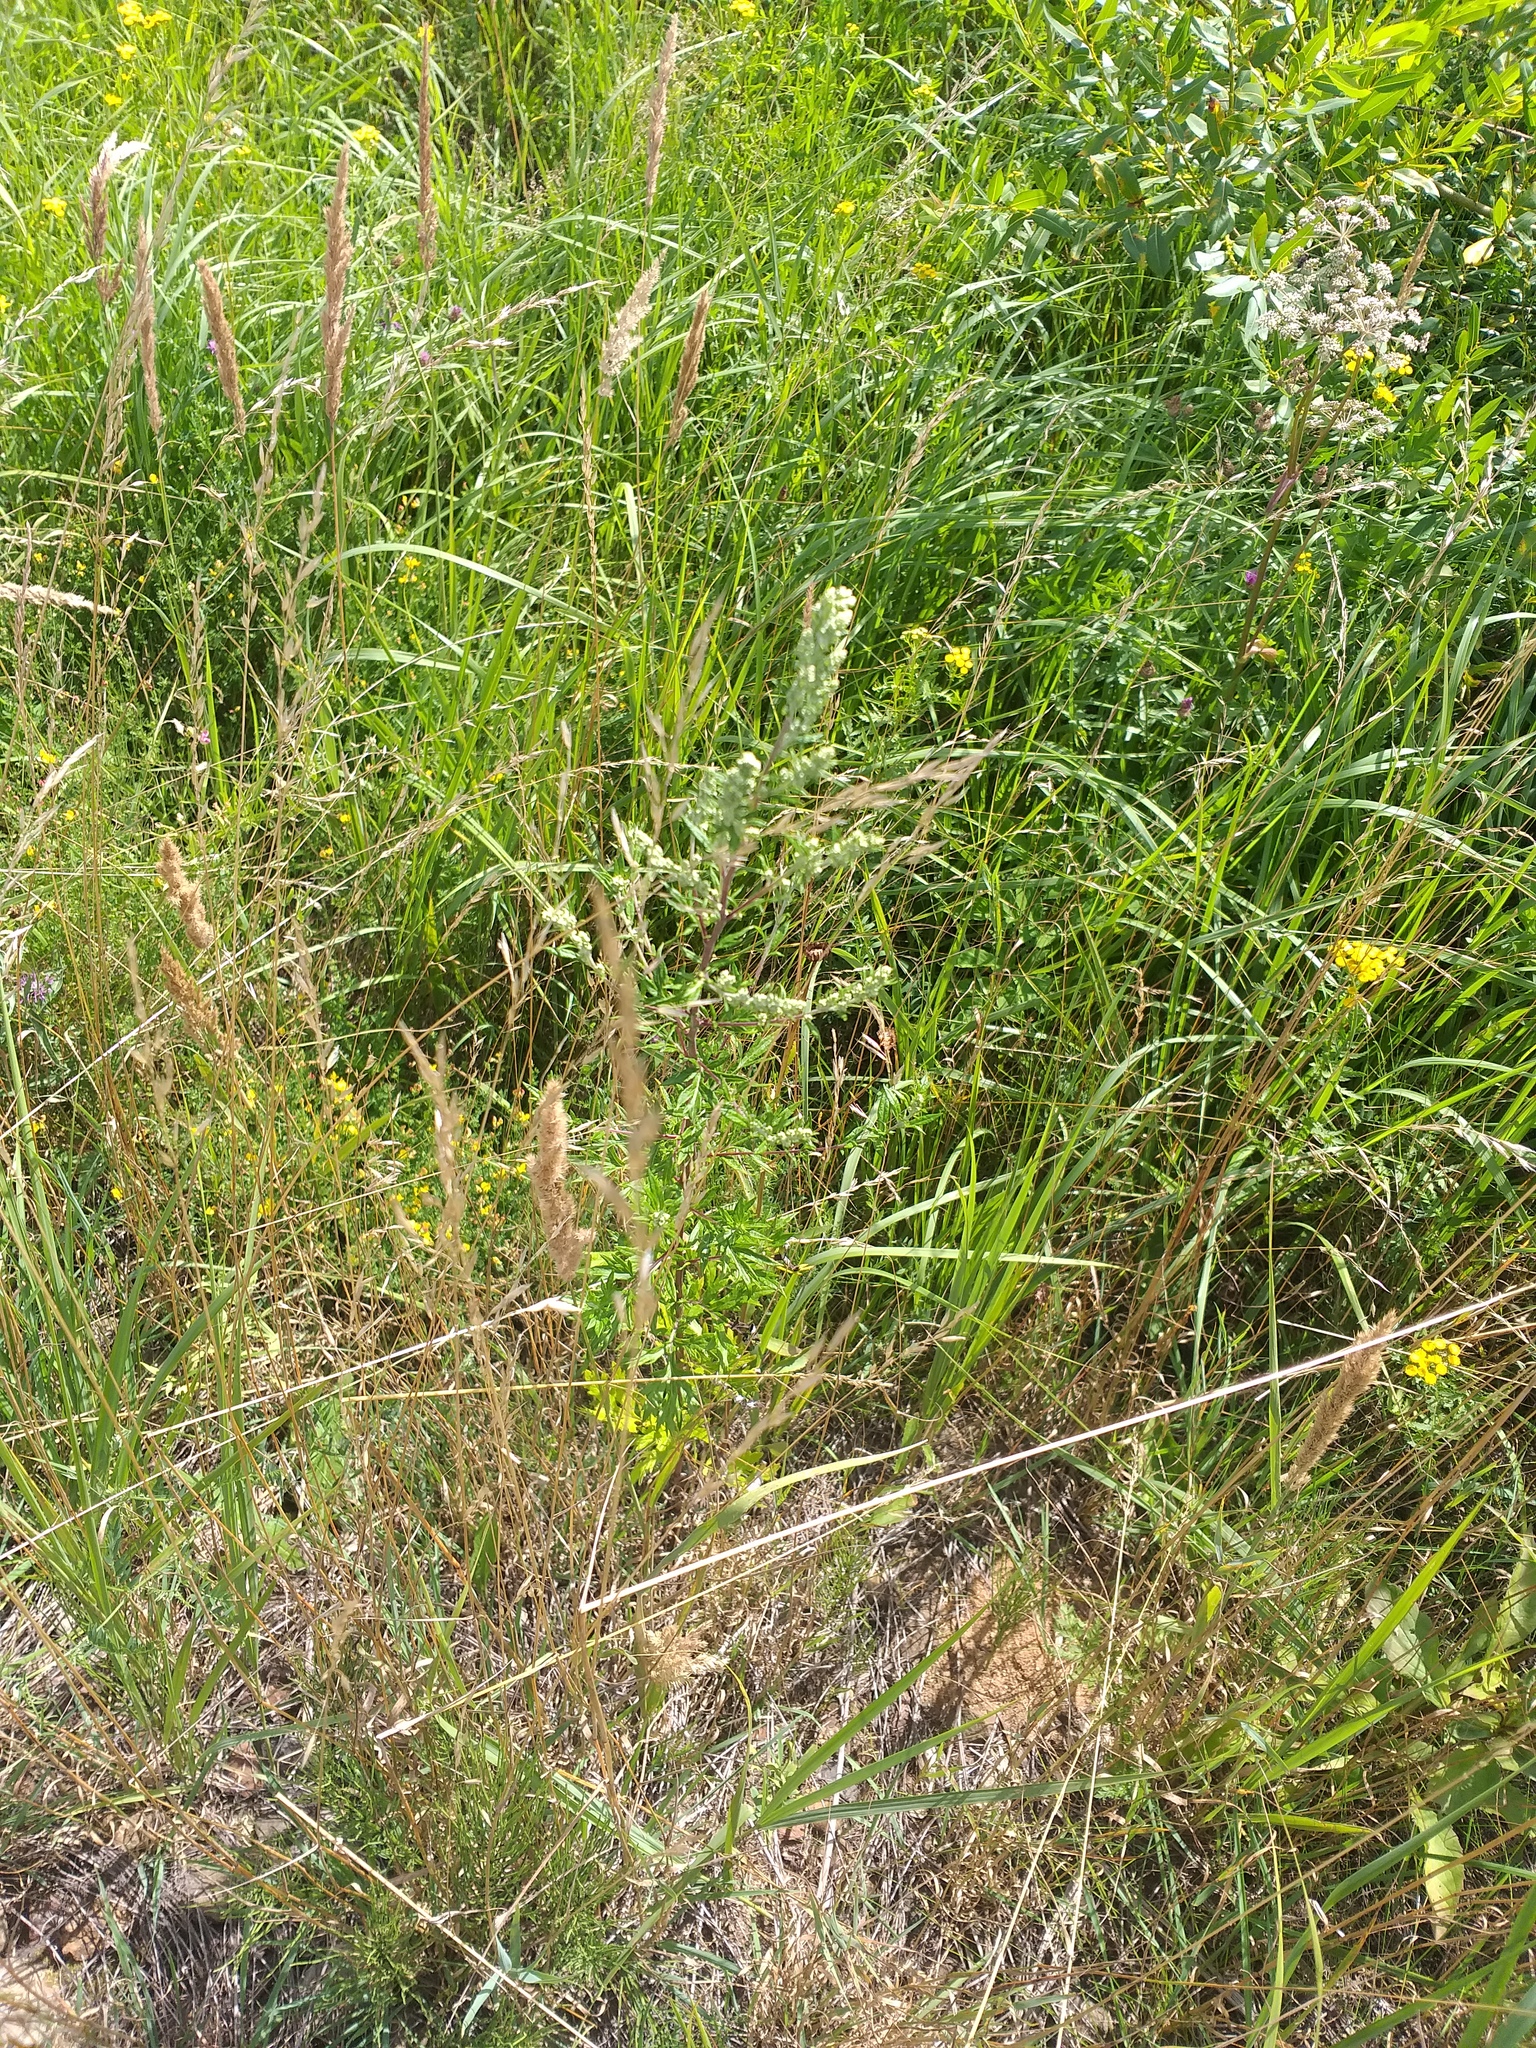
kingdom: Plantae
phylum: Tracheophyta
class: Magnoliopsida
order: Asterales
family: Asteraceae
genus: Artemisia
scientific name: Artemisia vulgaris
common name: Mugwort
